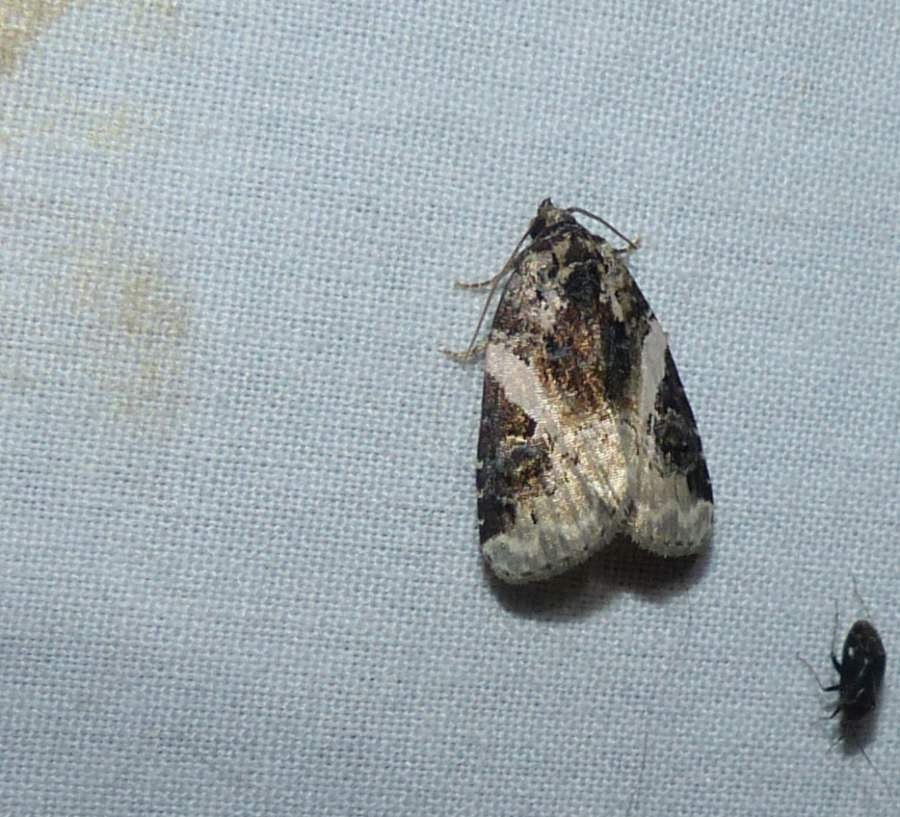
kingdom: Animalia
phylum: Arthropoda
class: Insecta
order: Lepidoptera
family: Noctuidae
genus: Pseudeustrotia
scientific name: Pseudeustrotia carneola
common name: Pink-barred lithacodia moth
